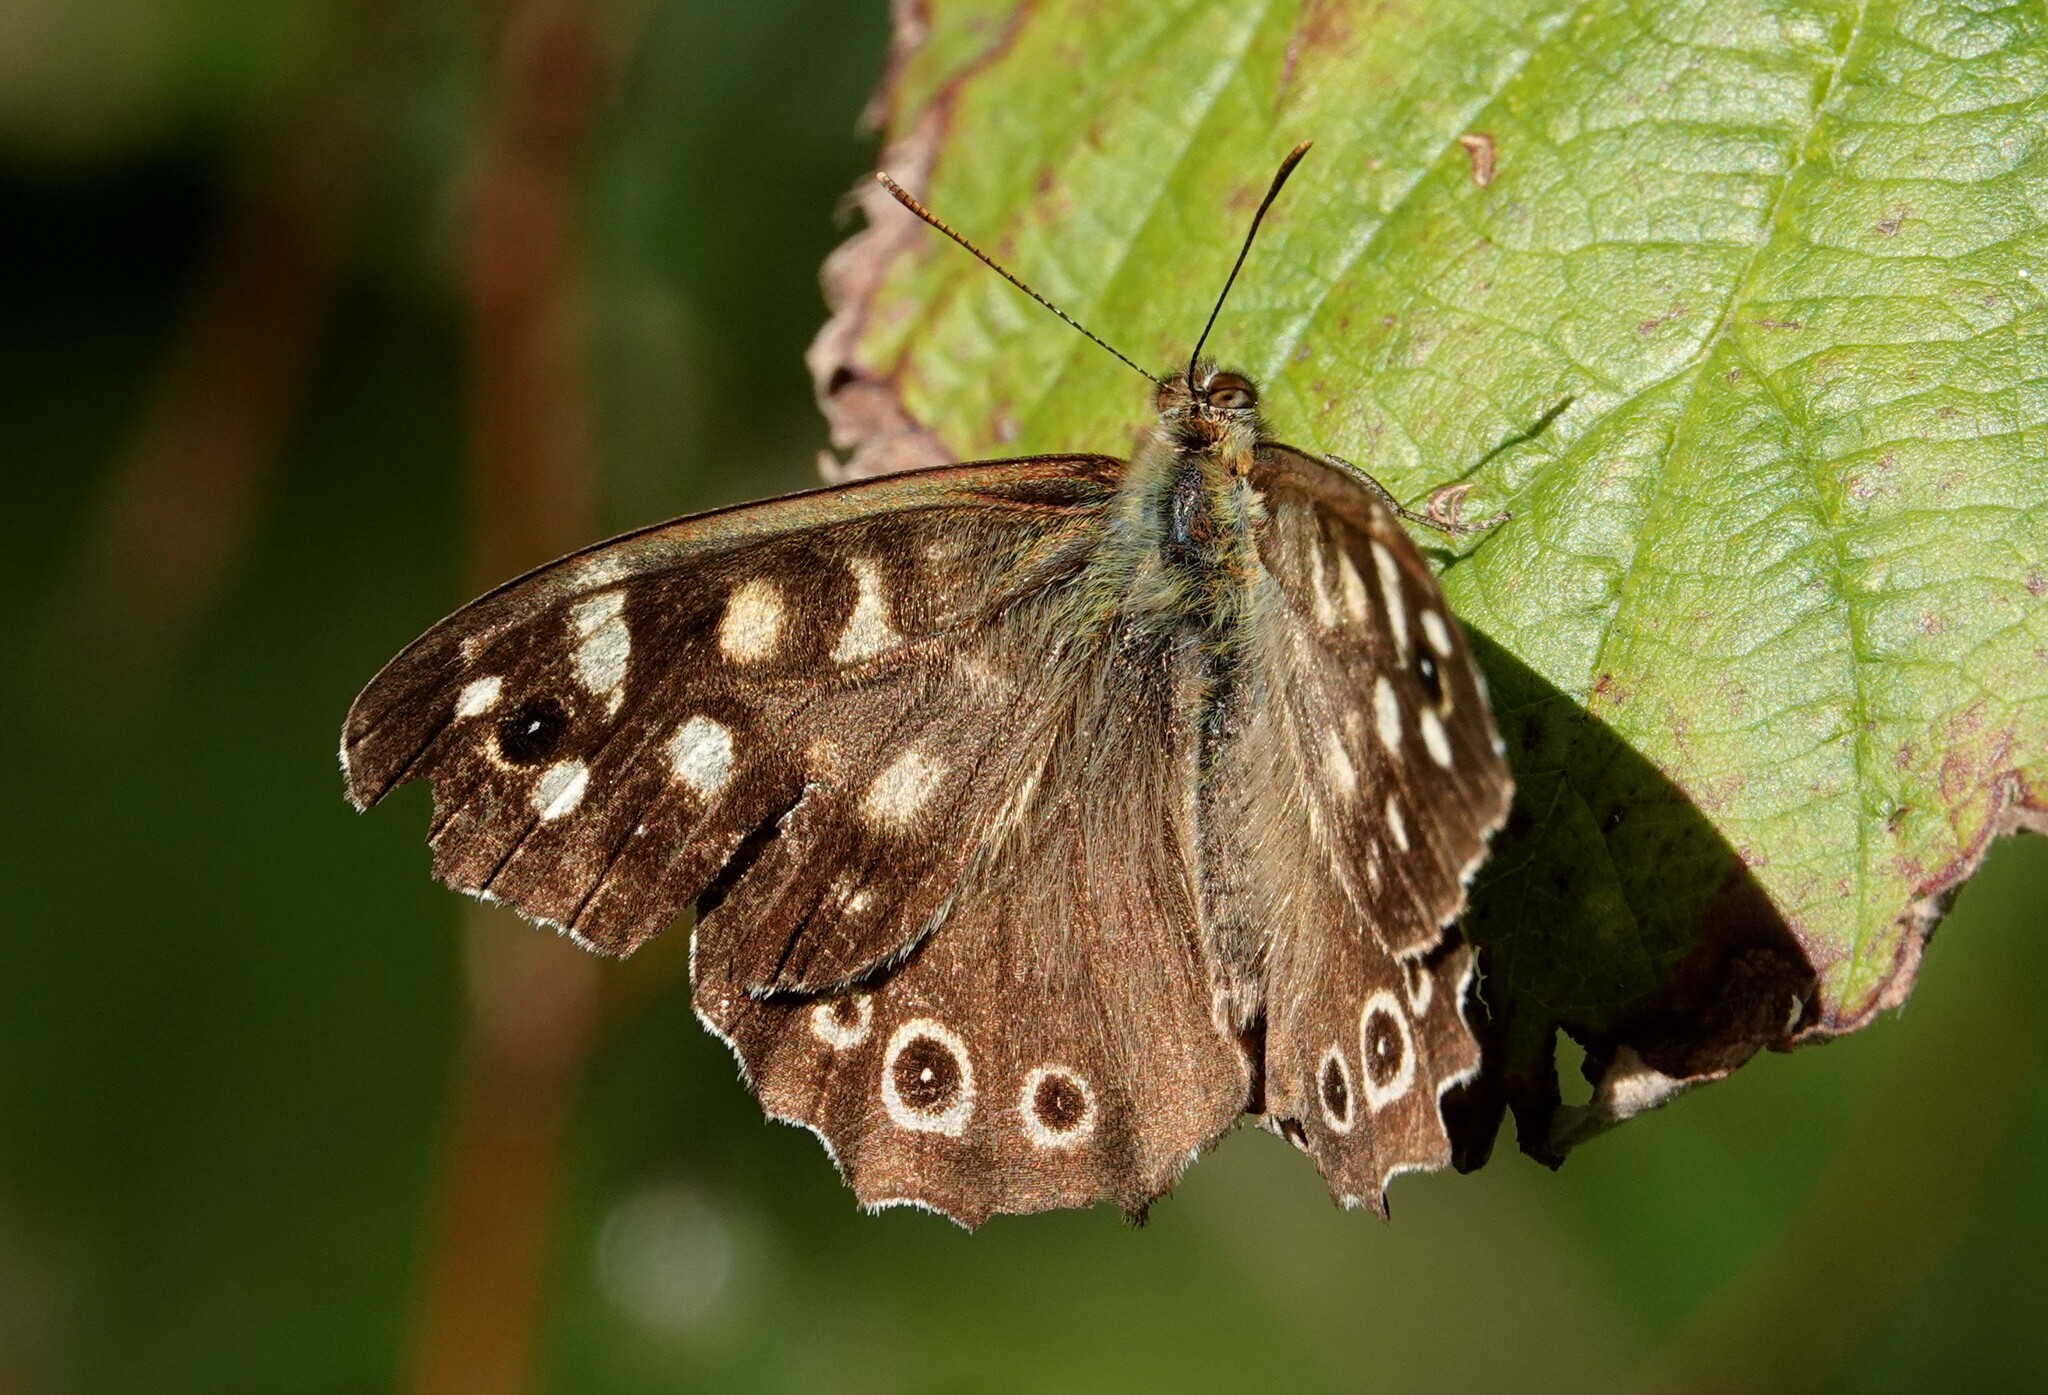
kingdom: Animalia
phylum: Arthropoda
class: Insecta
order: Lepidoptera
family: Nymphalidae
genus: Pararge
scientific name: Pararge aegeria
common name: Speckled wood
